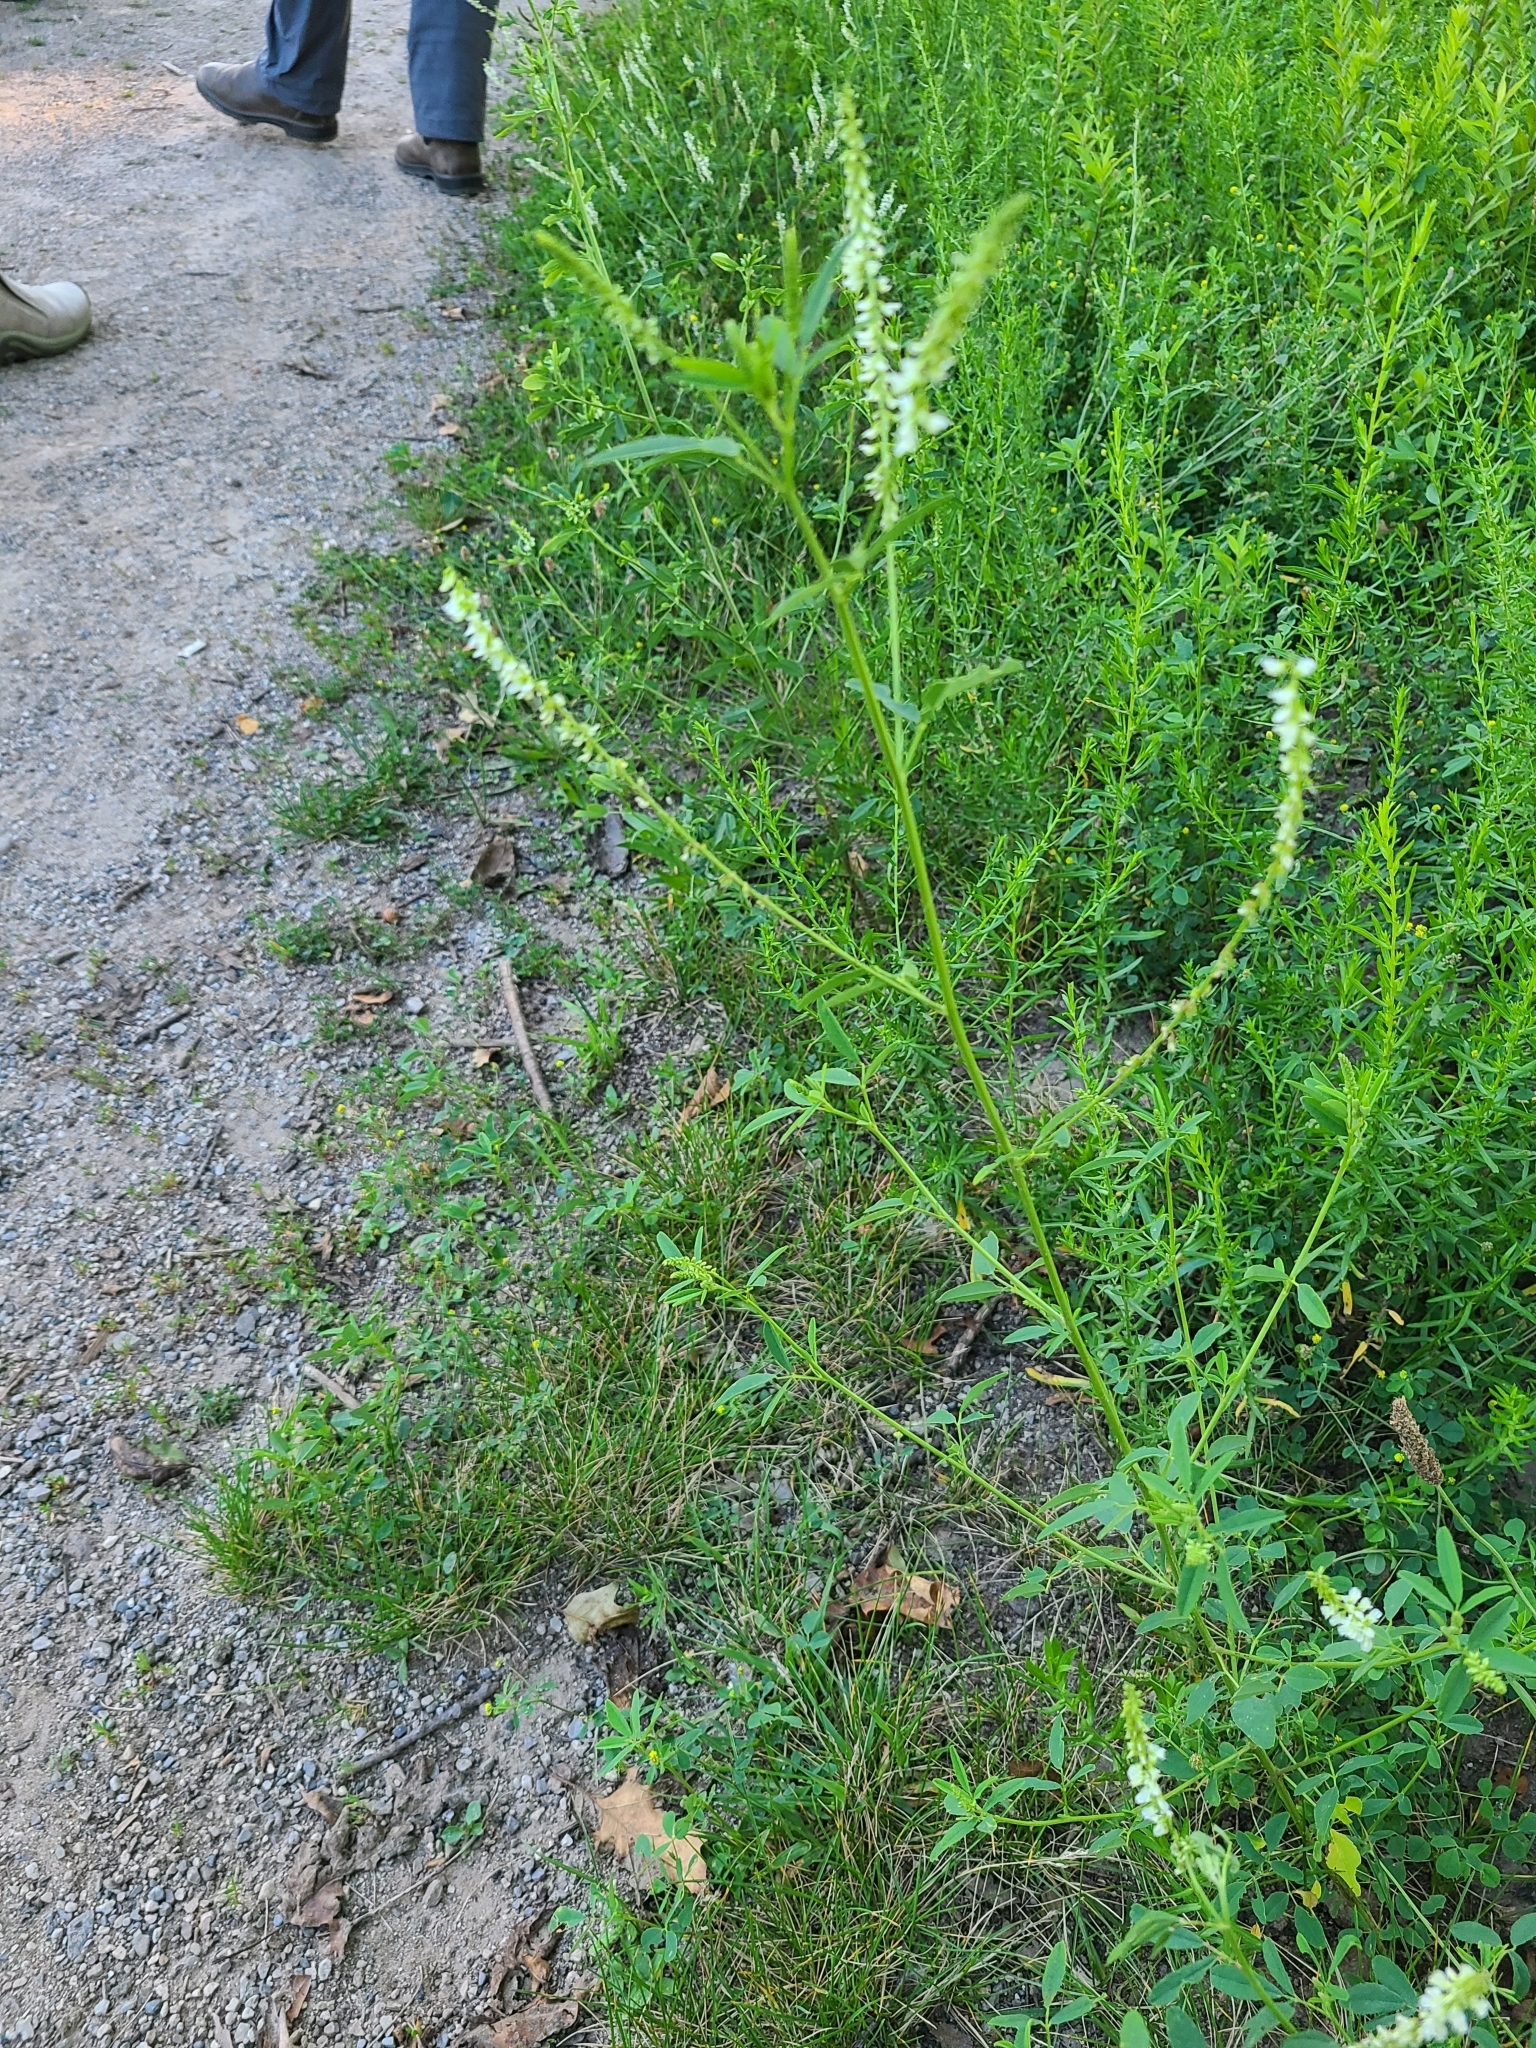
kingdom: Plantae
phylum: Tracheophyta
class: Magnoliopsida
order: Fabales
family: Fabaceae
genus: Melilotus
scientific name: Melilotus albus
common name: White melilot
